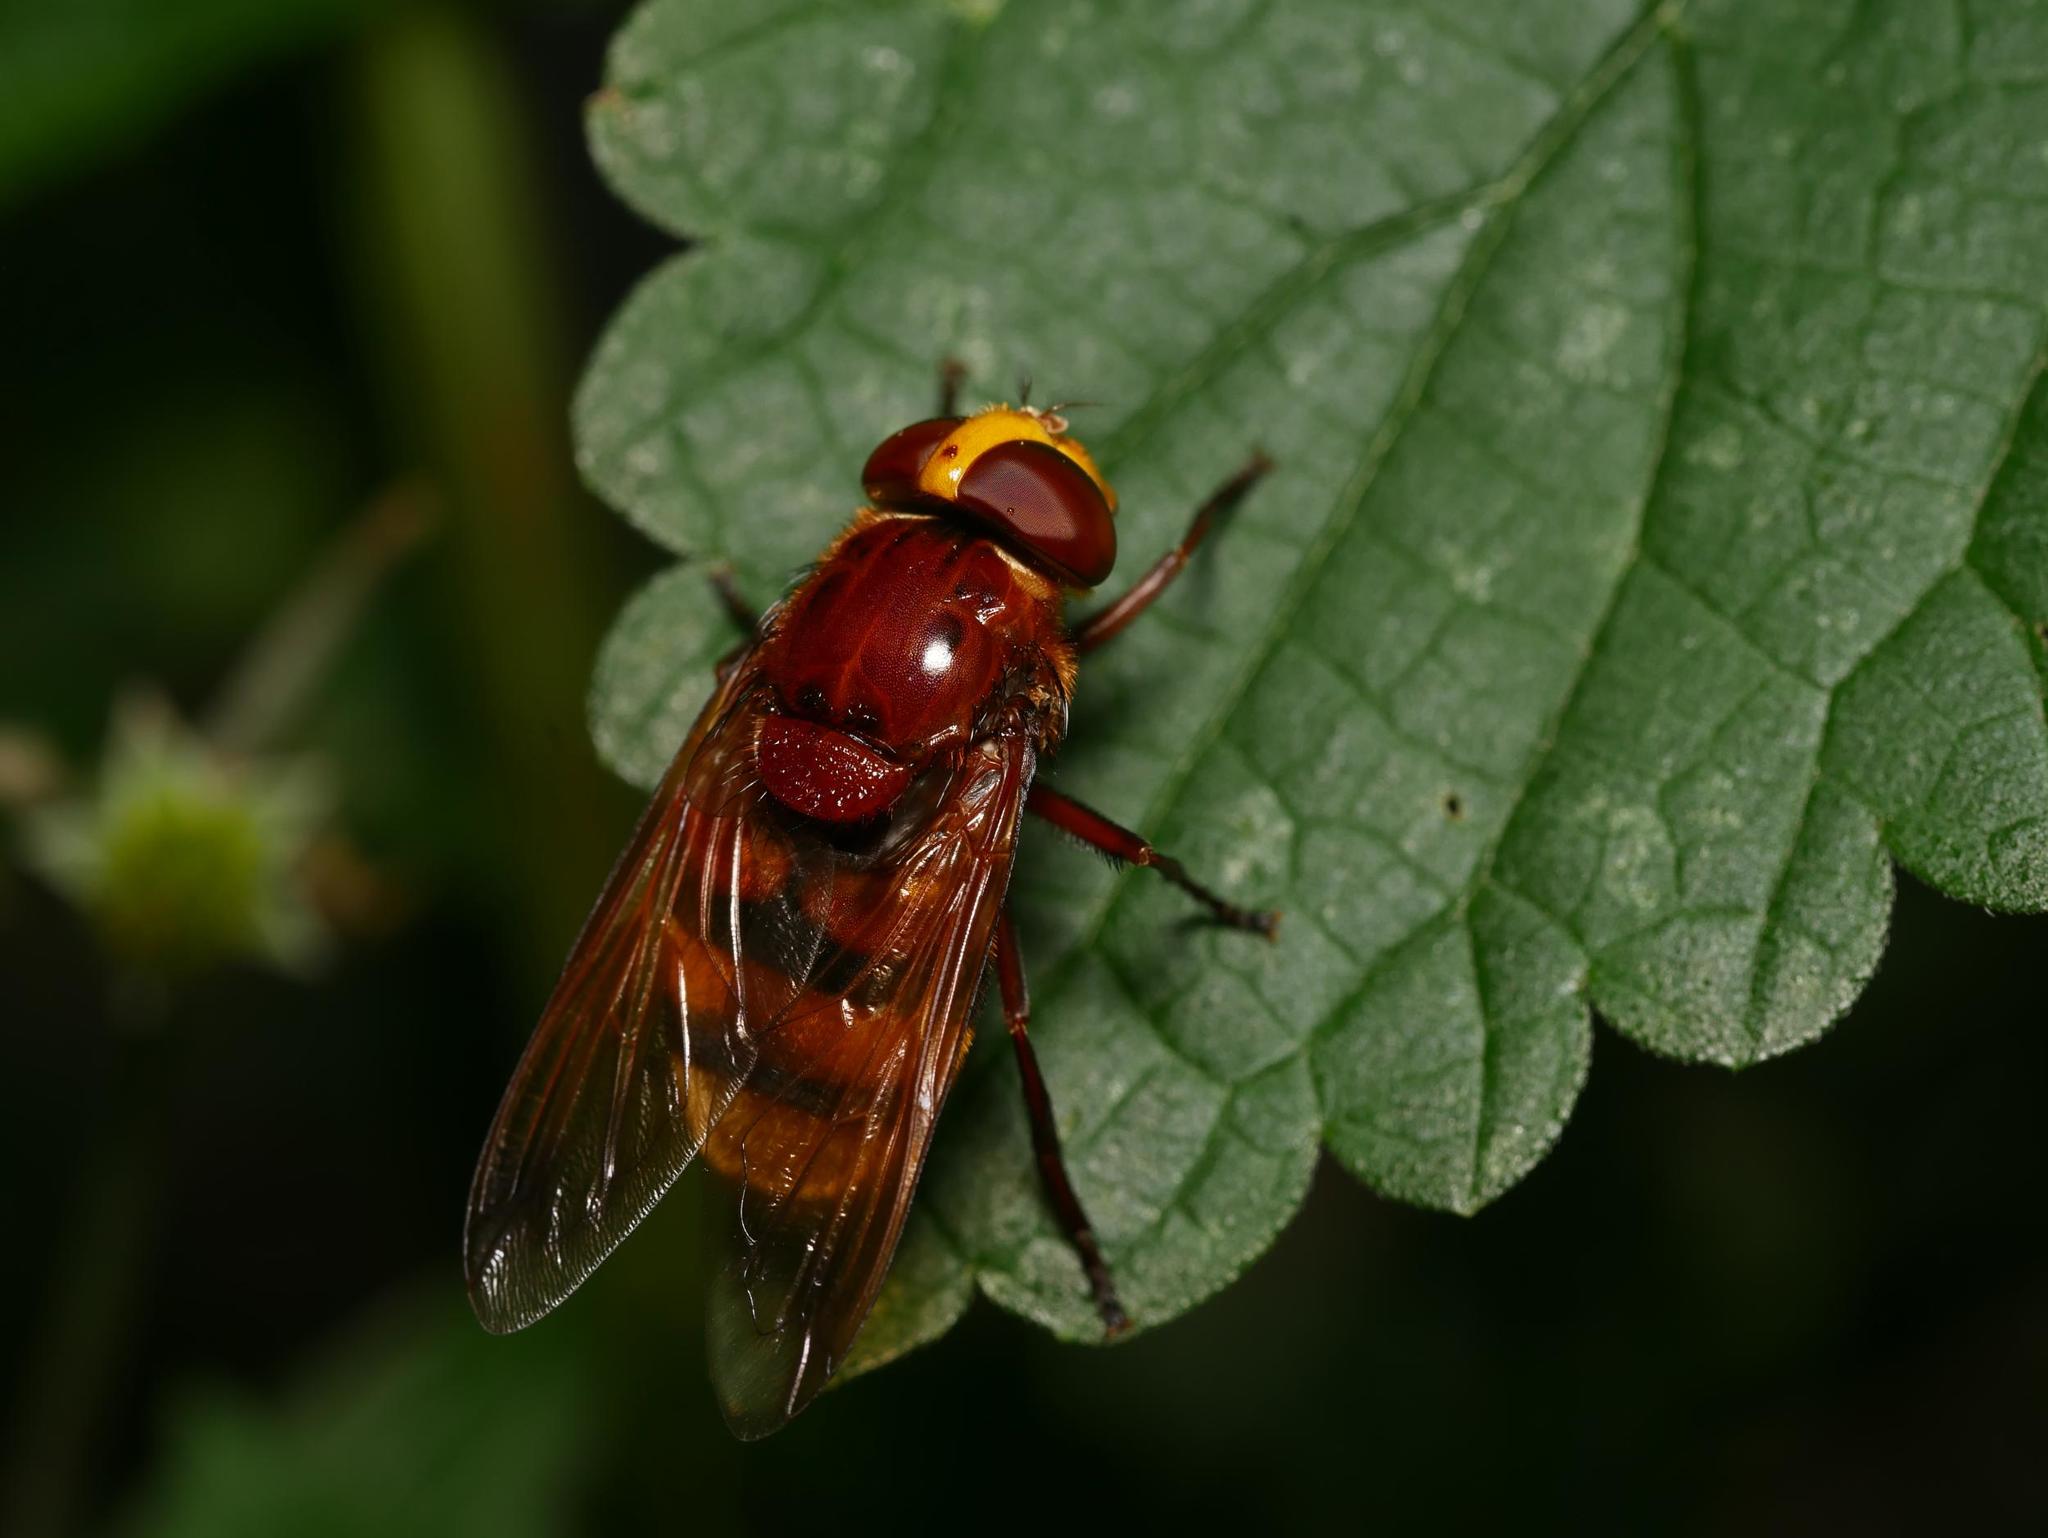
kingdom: Animalia
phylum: Arthropoda
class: Insecta
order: Diptera
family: Syrphidae
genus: Volucella
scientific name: Volucella zonaria
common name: Hornet hoverfly
